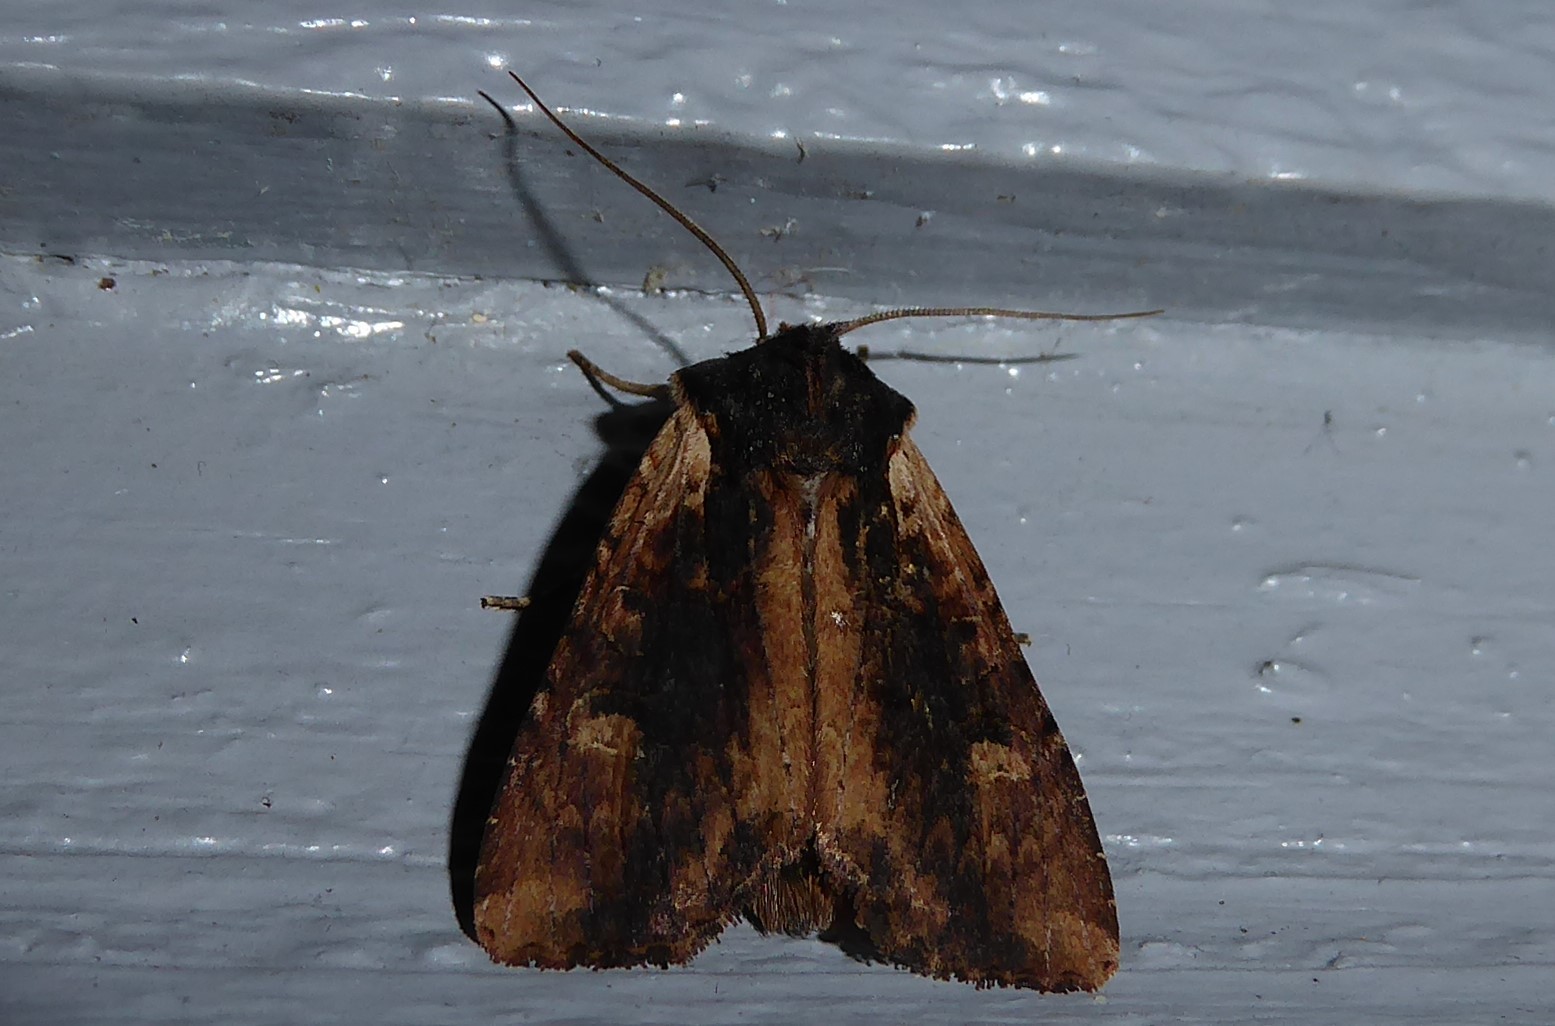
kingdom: Animalia
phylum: Arthropoda
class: Insecta
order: Lepidoptera
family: Noctuidae
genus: Ichneutica
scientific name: Ichneutica omoplaca
